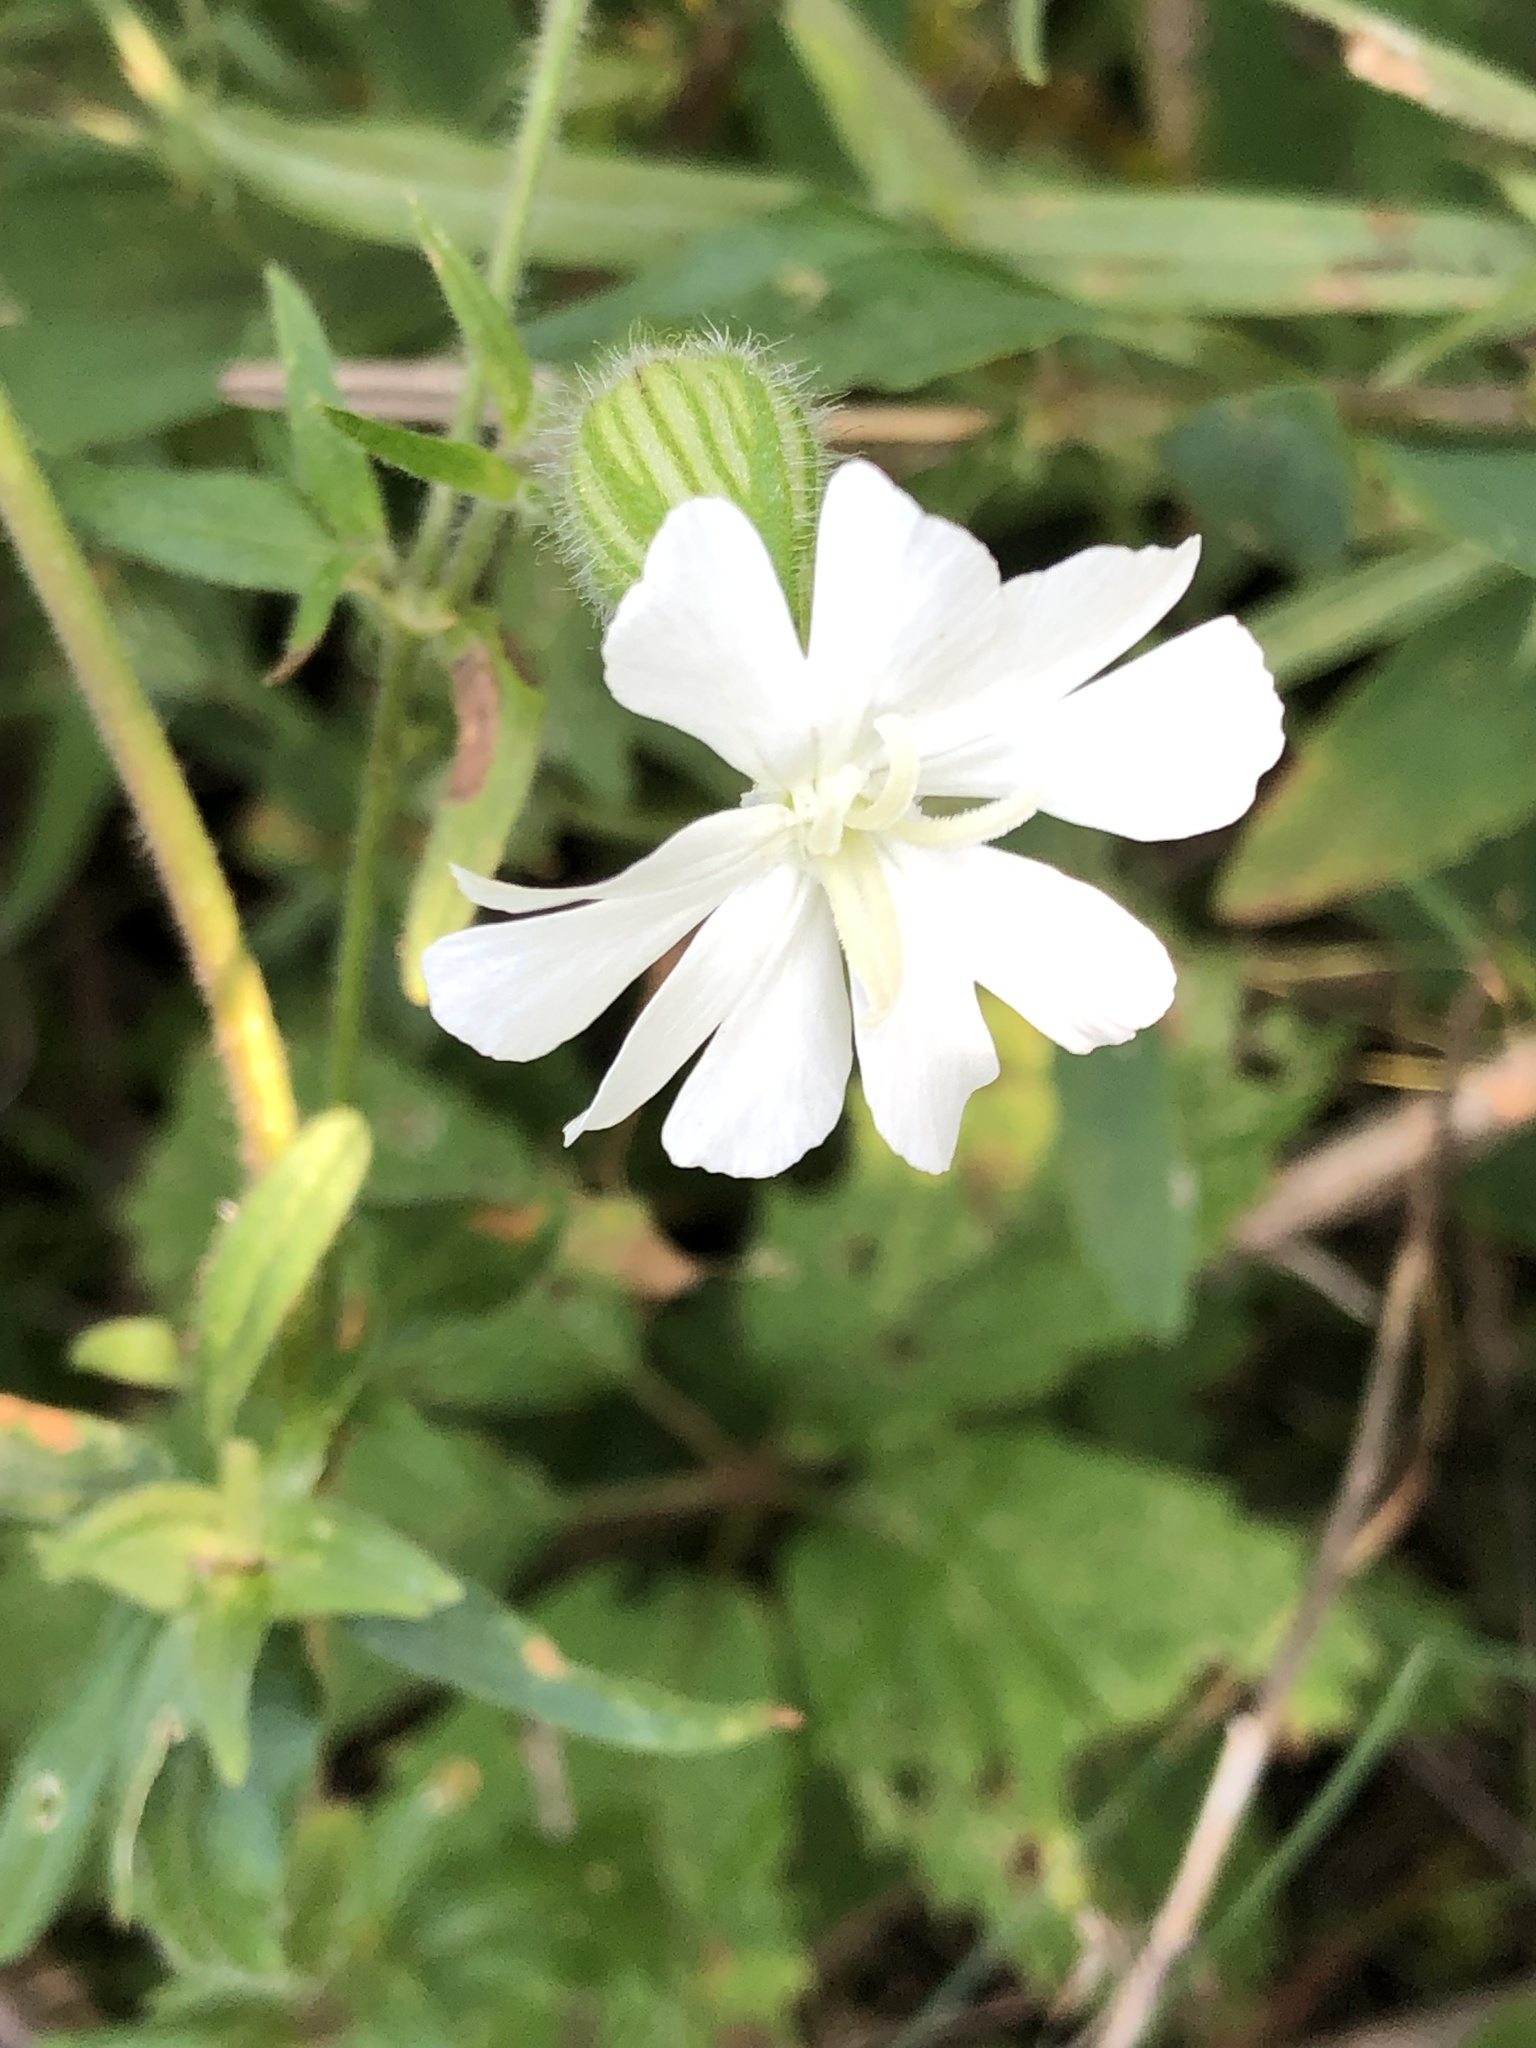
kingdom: Plantae
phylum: Tracheophyta
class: Magnoliopsida
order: Caryophyllales
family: Caryophyllaceae
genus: Silene
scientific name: Silene latifolia
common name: White campion
